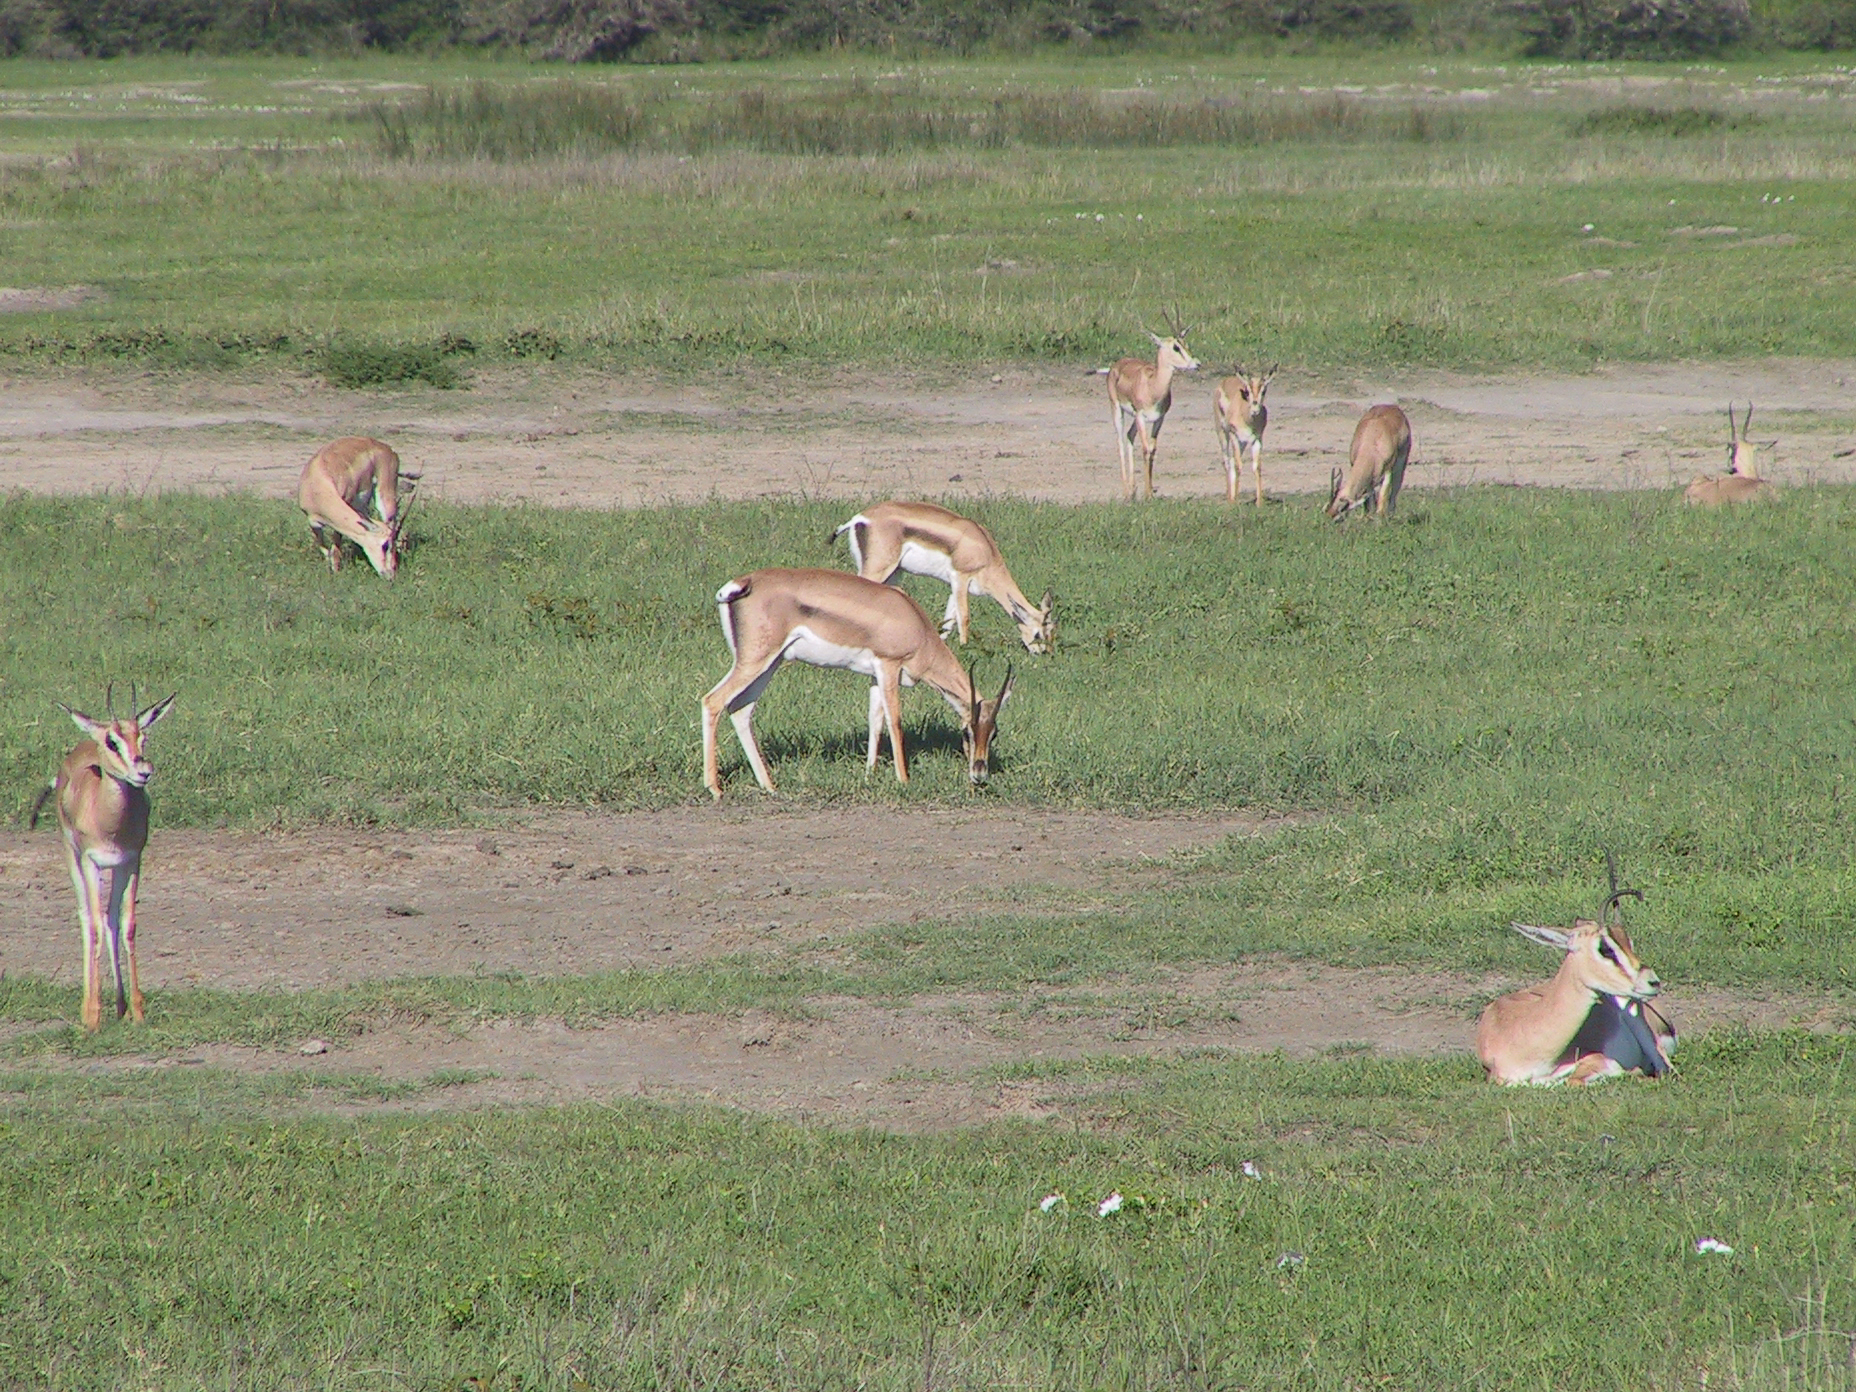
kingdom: Animalia
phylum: Chordata
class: Mammalia
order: Artiodactyla
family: Bovidae
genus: Nanger
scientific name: Nanger granti
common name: Grant's gazelle
